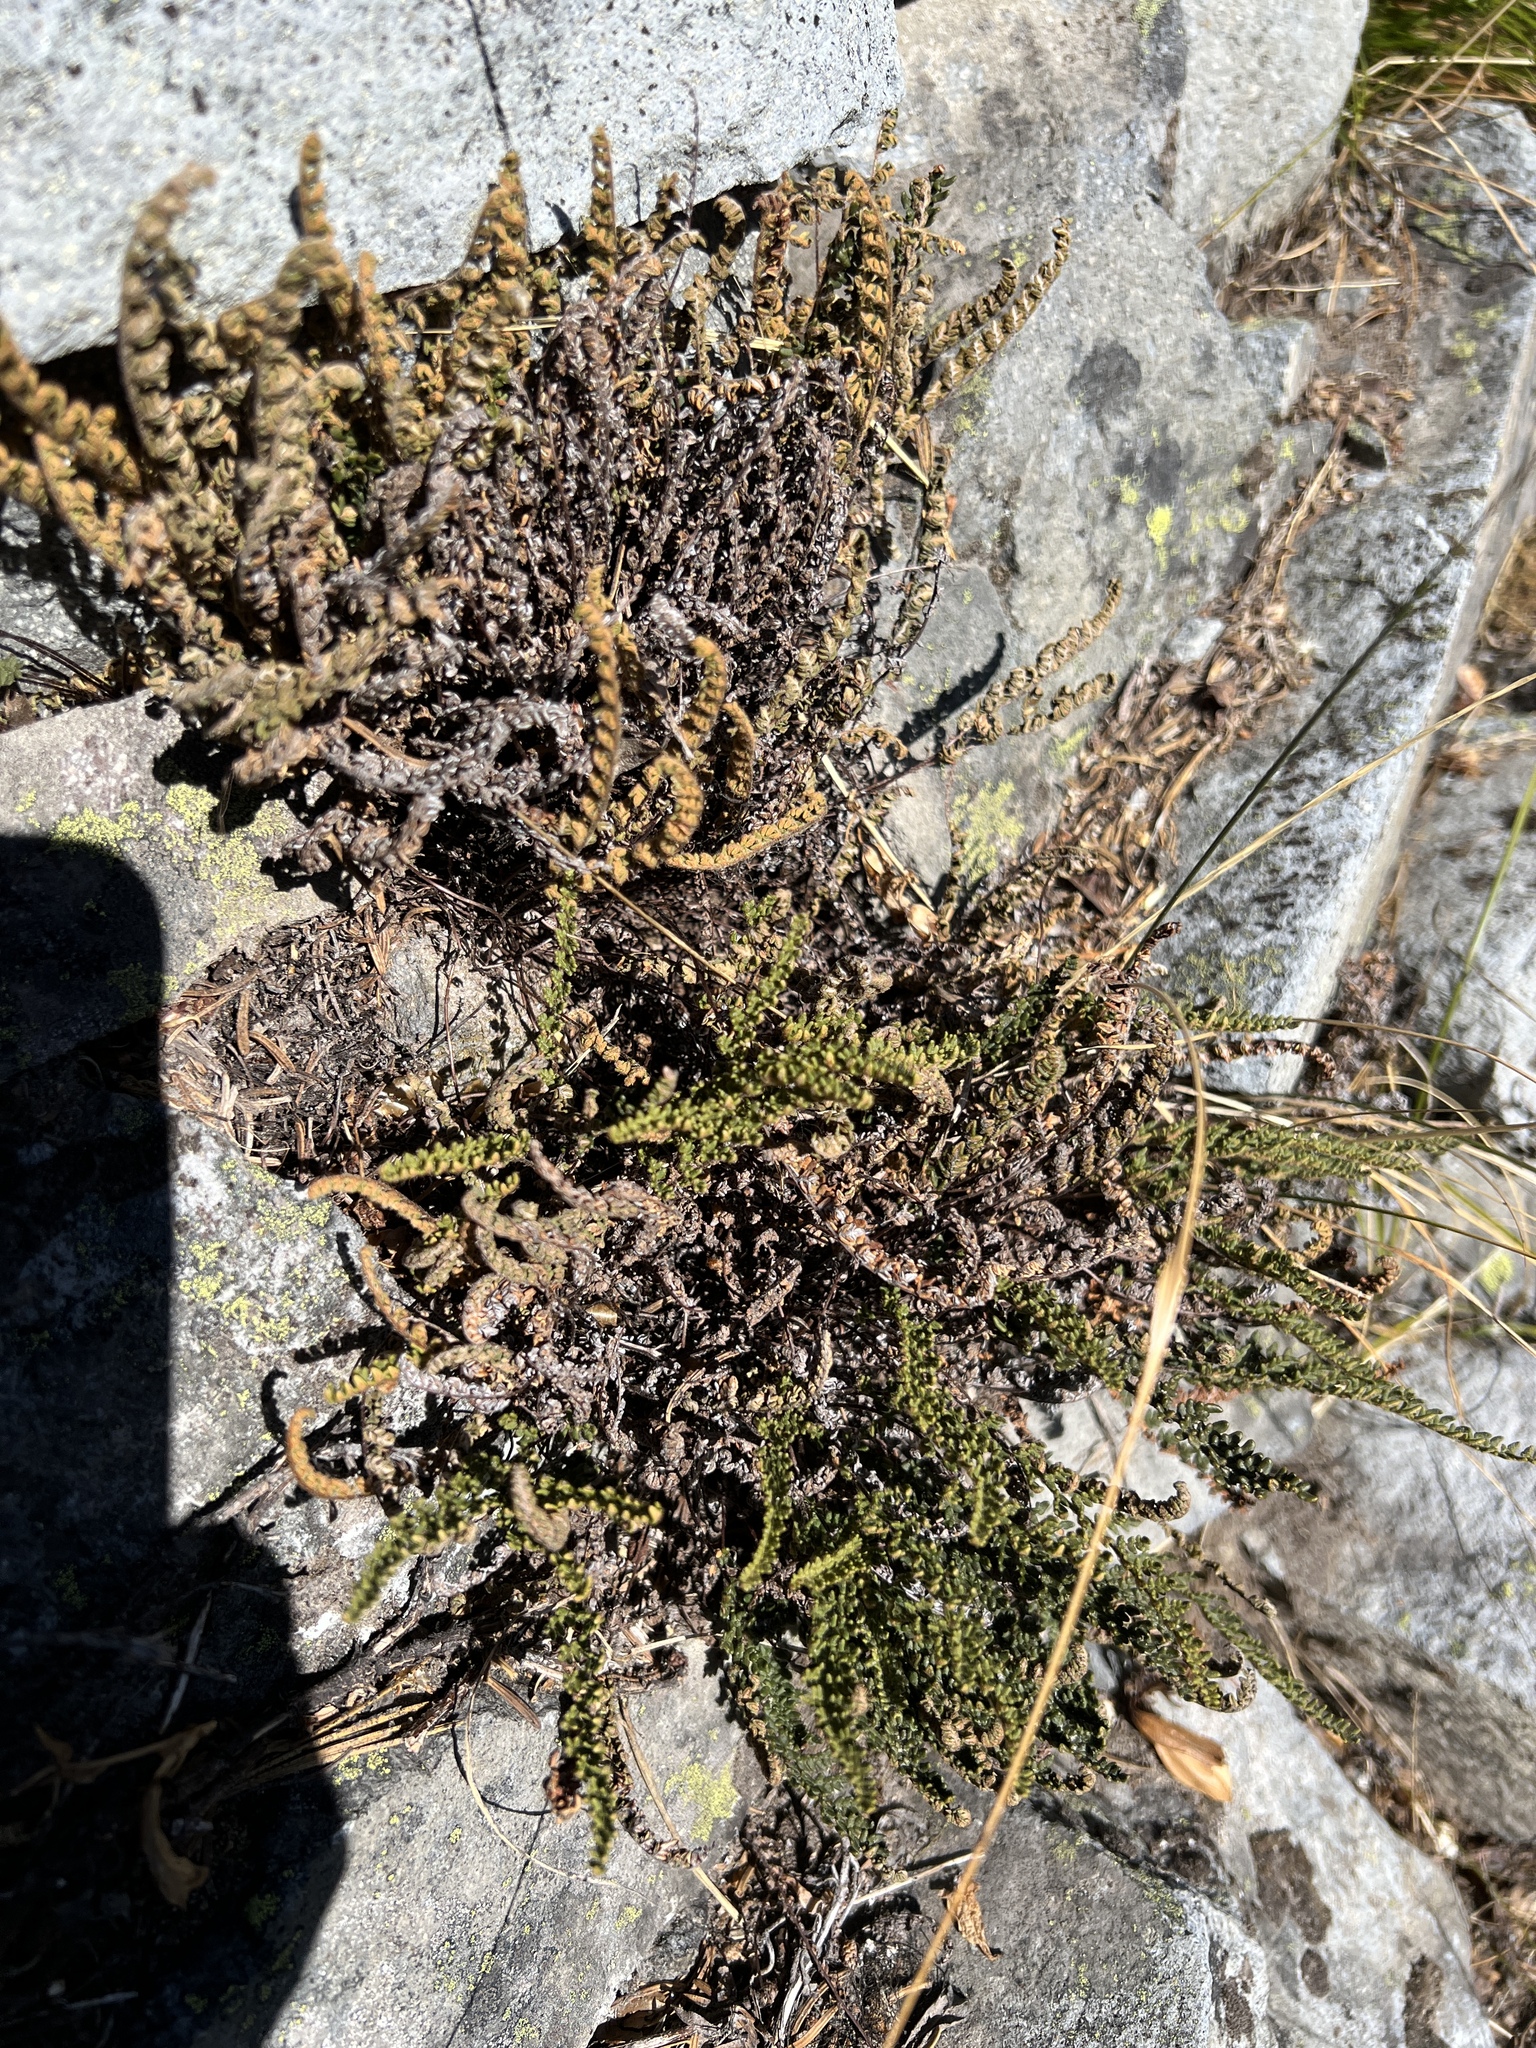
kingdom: Plantae
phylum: Tracheophyta
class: Polypodiopsida
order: Polypodiales
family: Pteridaceae
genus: Myriopteris
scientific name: Myriopteris gracillima
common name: Lace fern
